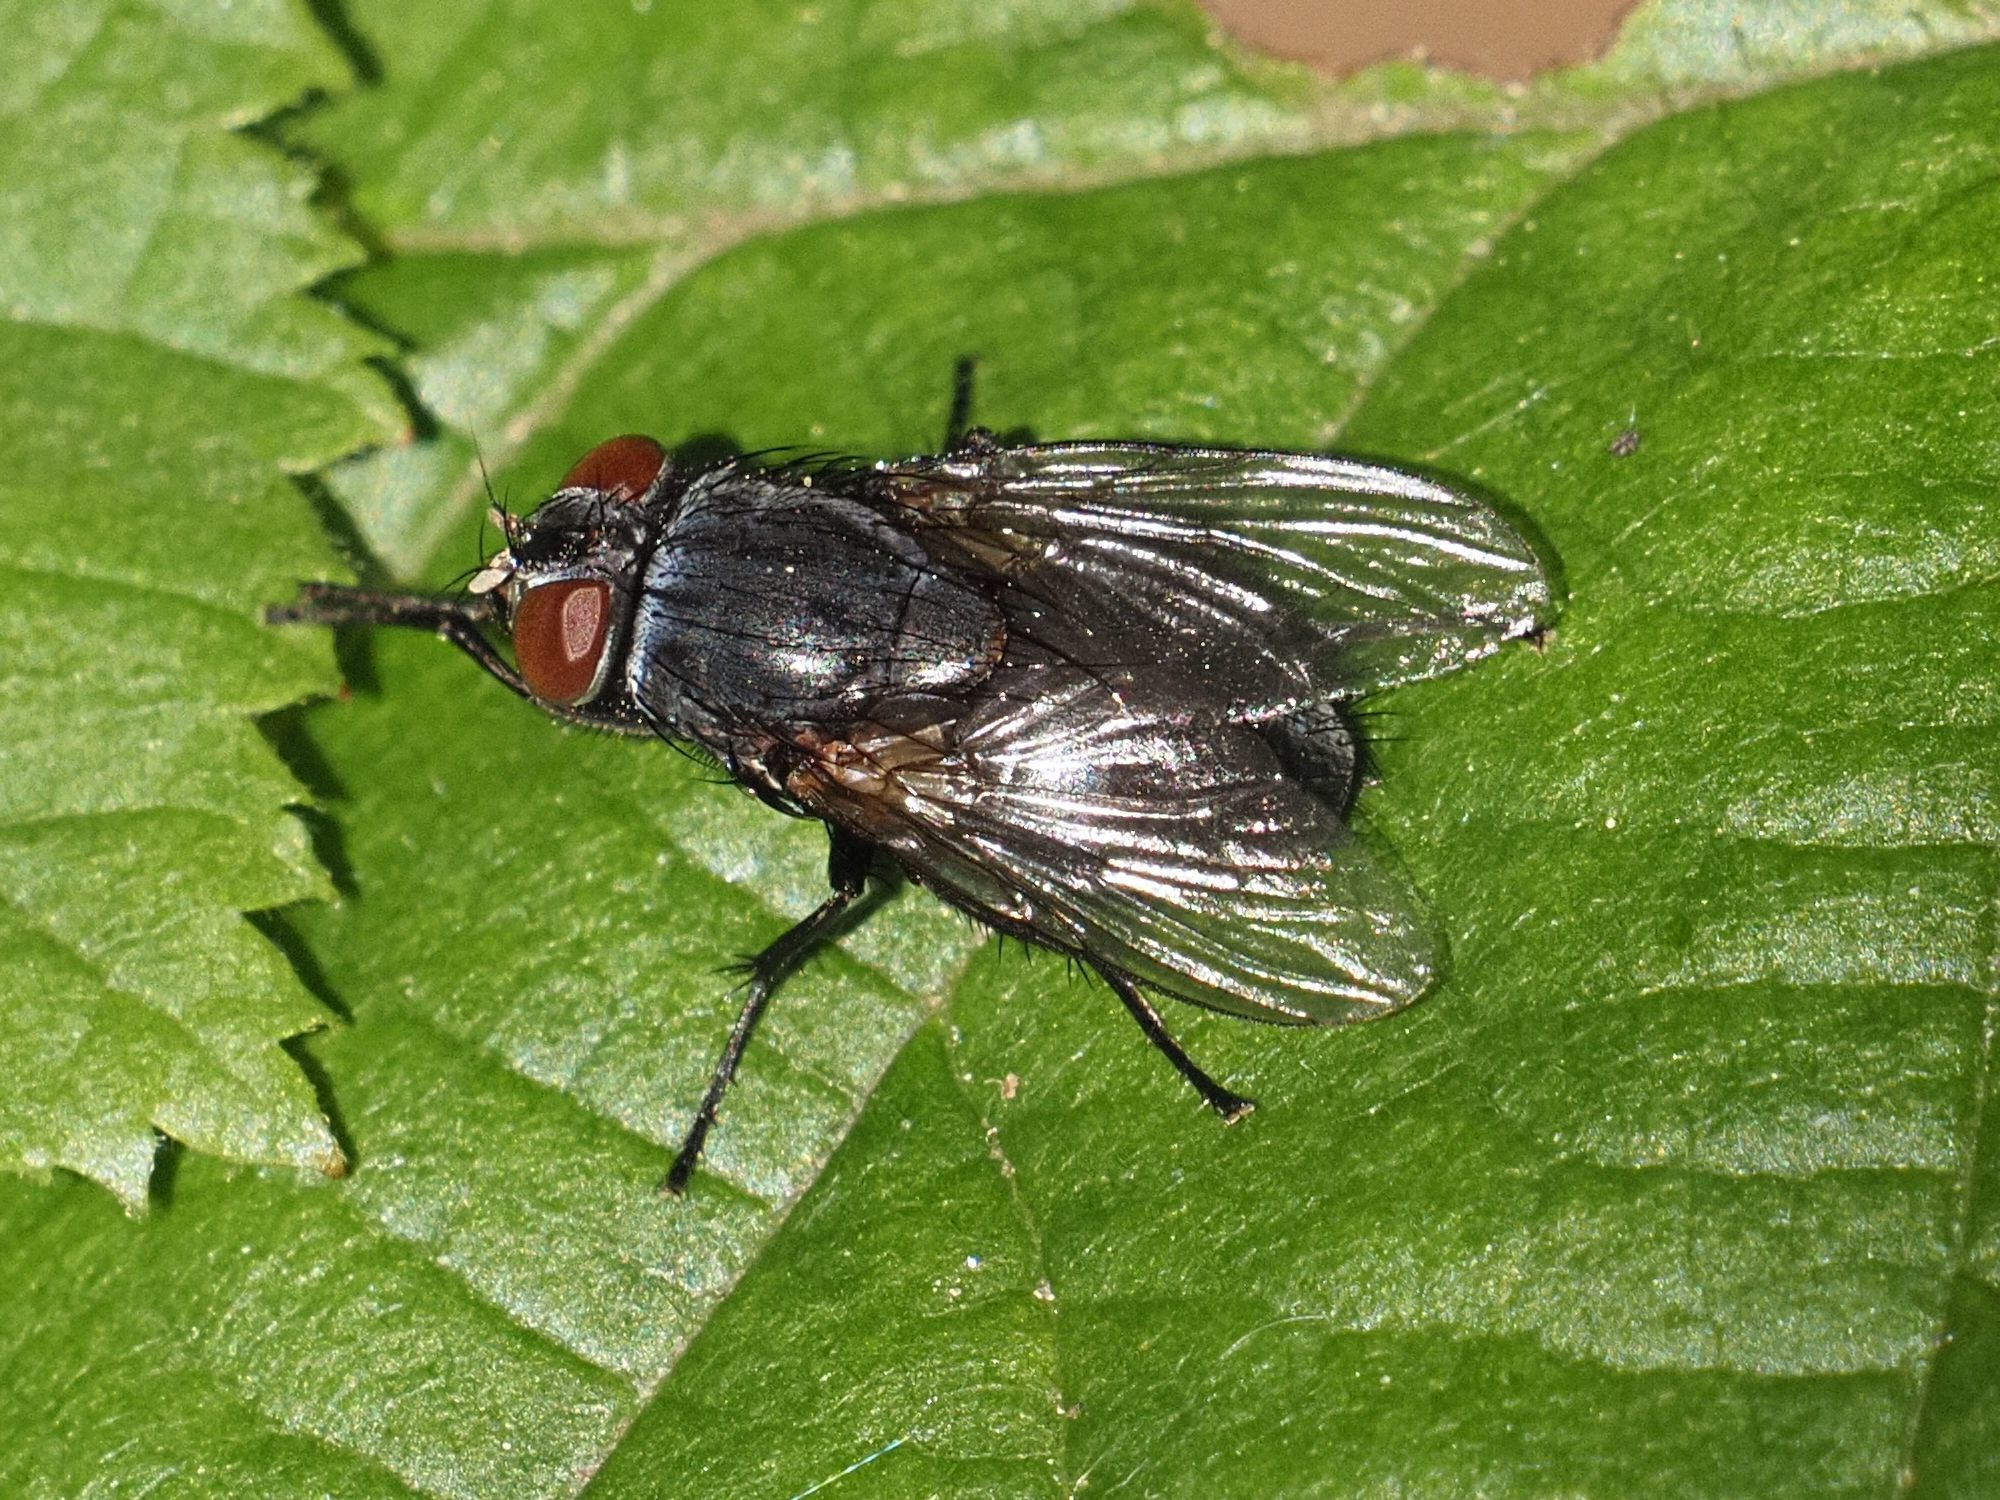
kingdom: Animalia
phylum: Arthropoda
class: Insecta
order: Diptera
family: Muscidae
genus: Muscina
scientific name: Muscina pascuorum
